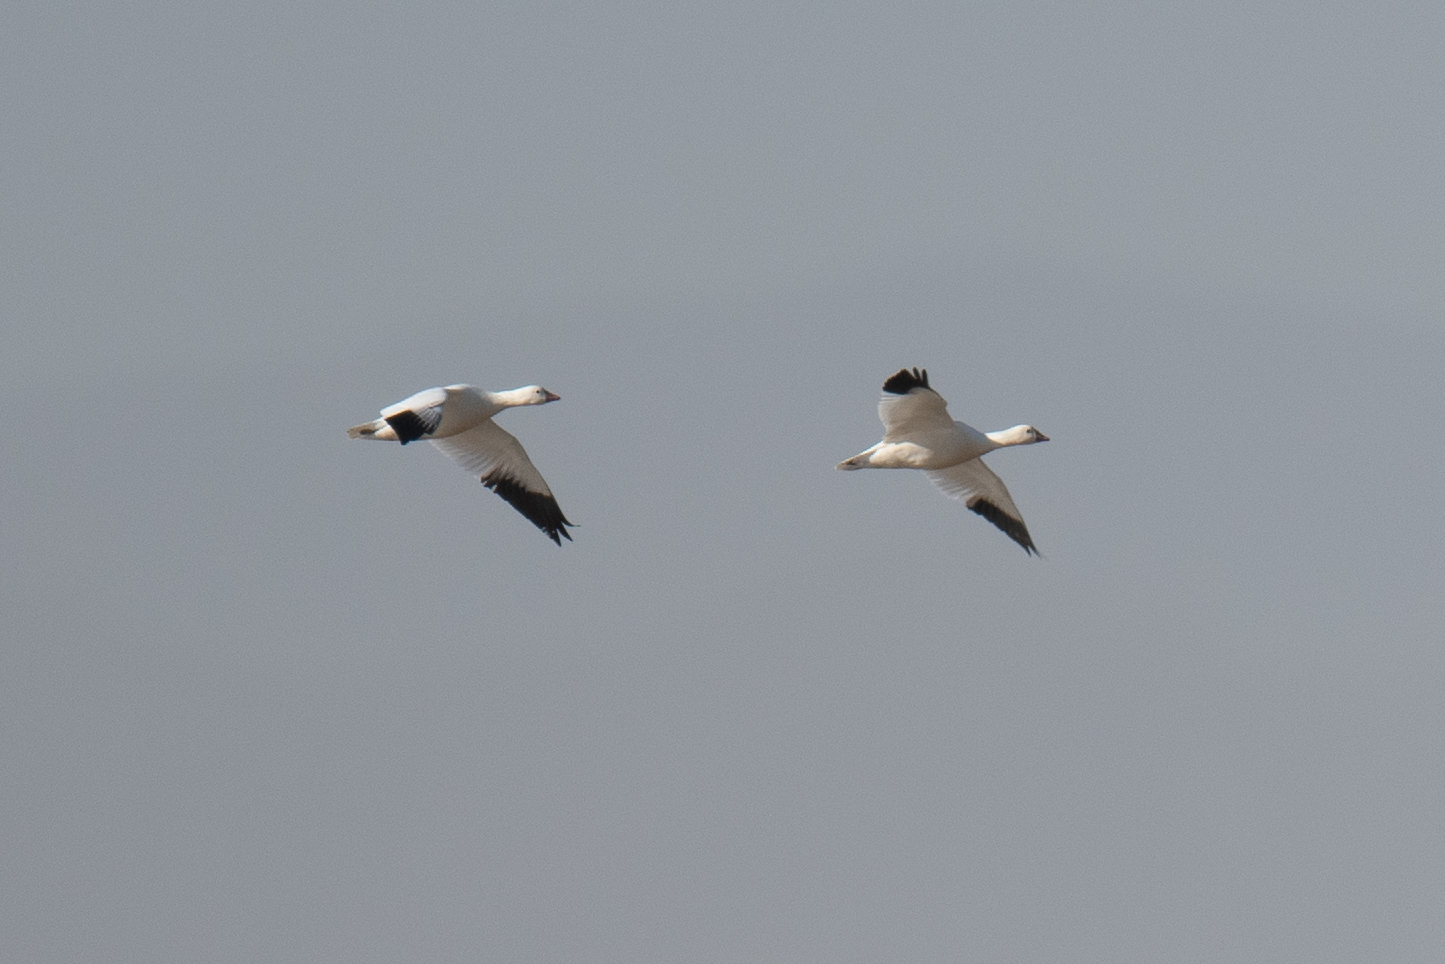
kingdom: Animalia
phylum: Chordata
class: Aves
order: Anseriformes
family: Anatidae
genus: Anser
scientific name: Anser caerulescens
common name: Snow goose
